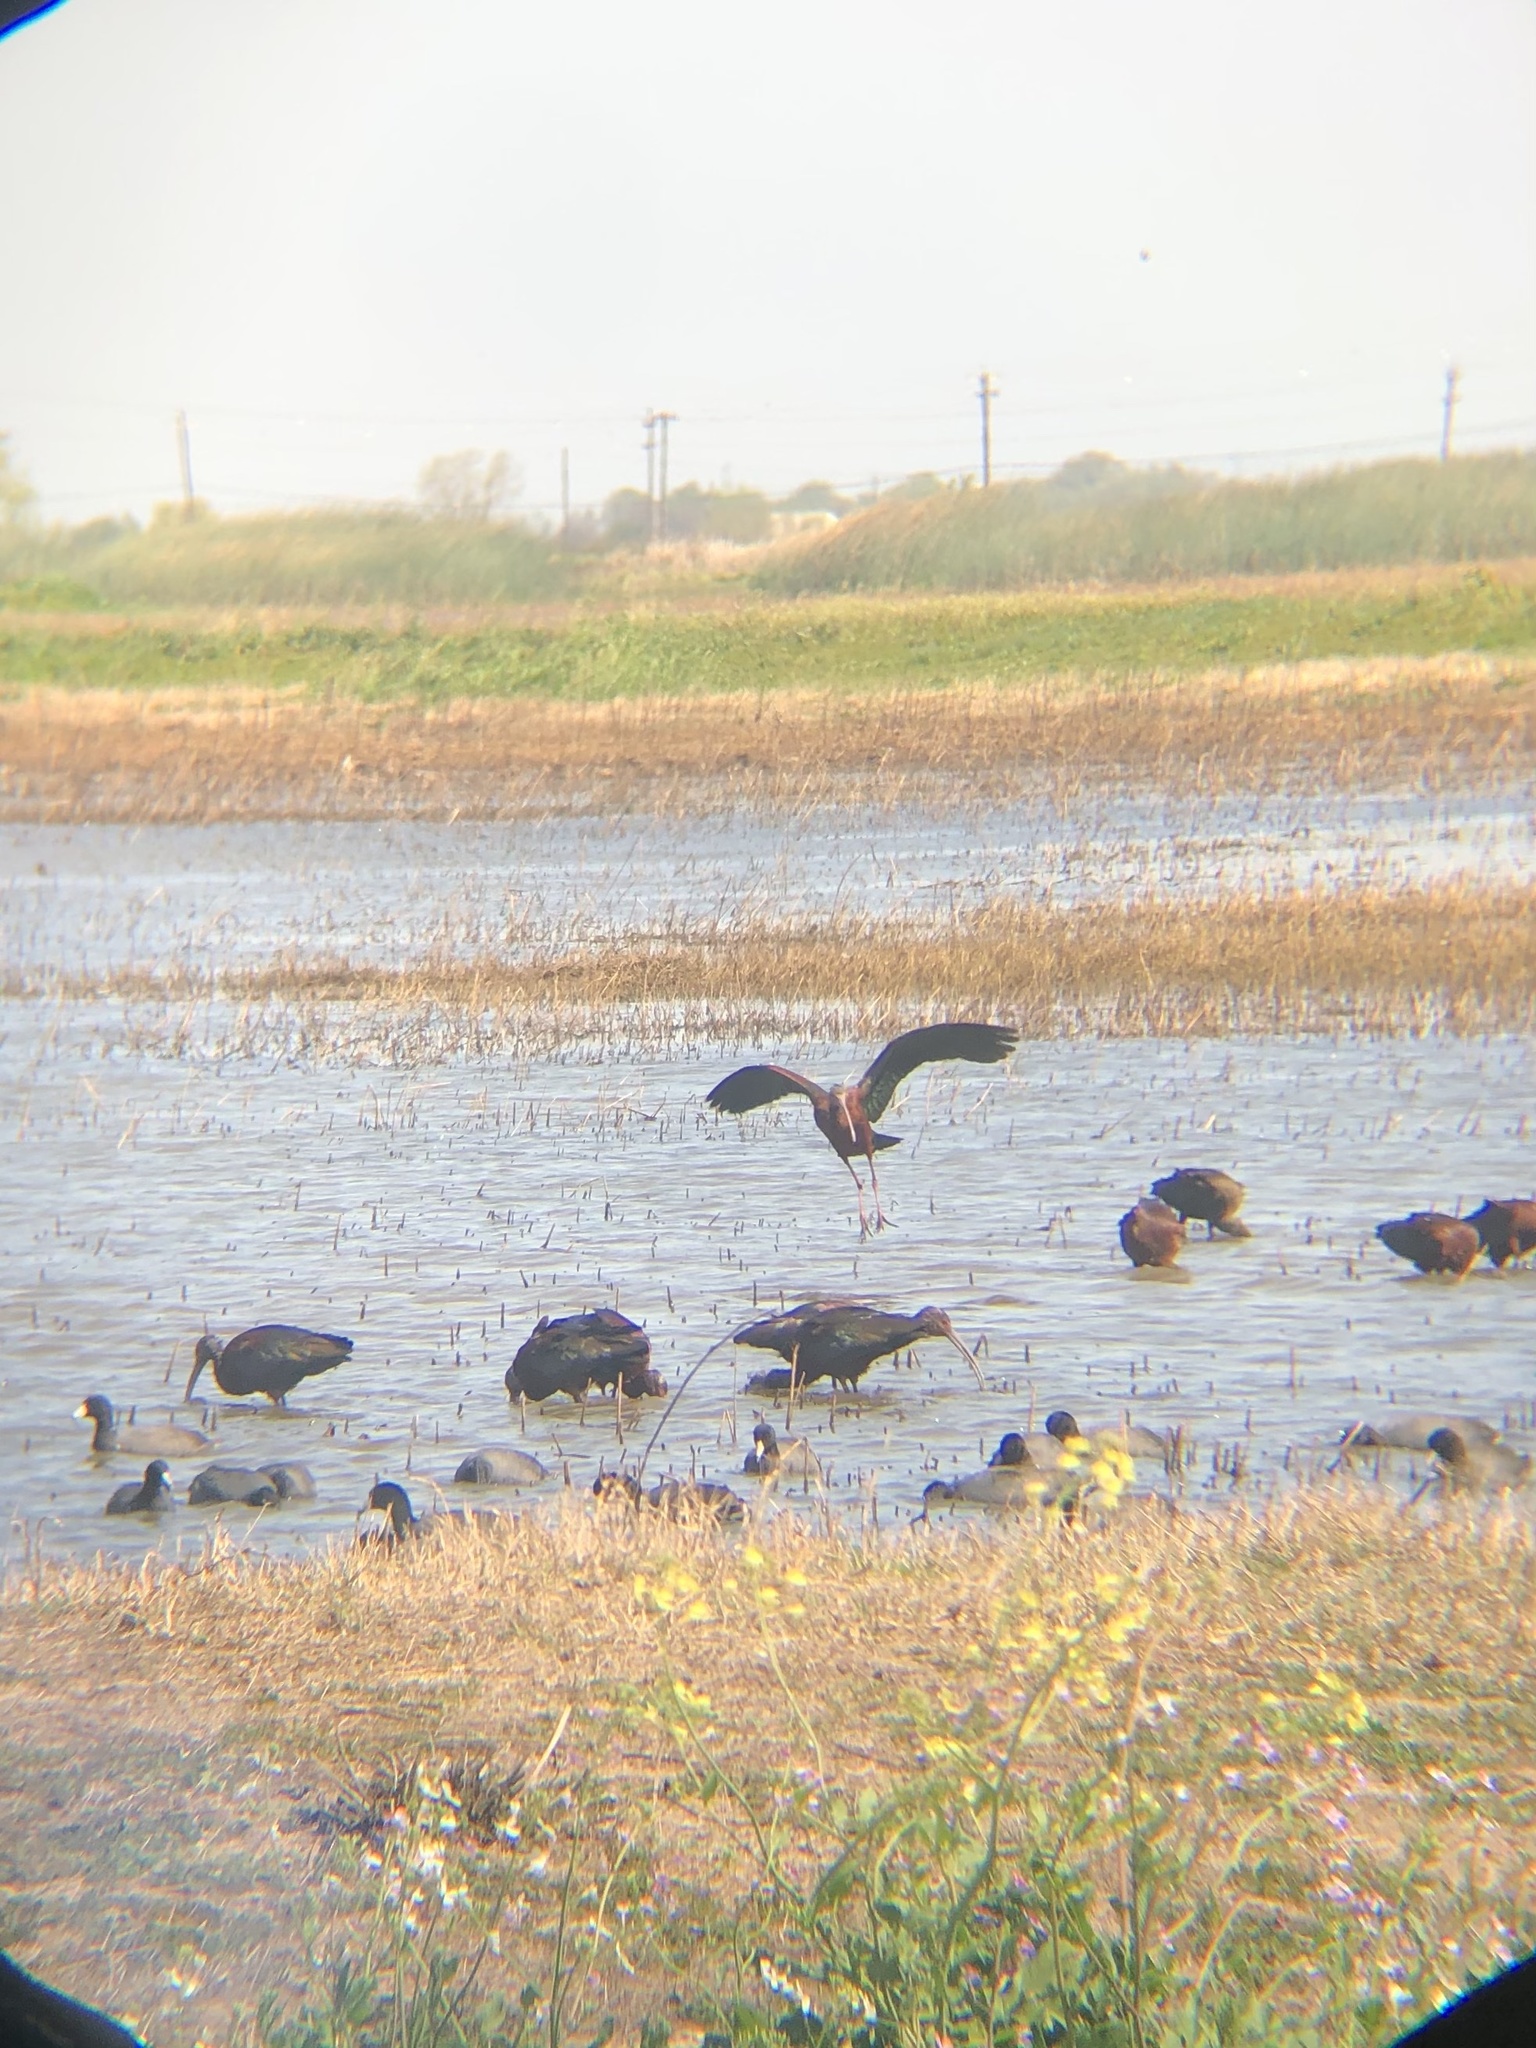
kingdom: Animalia
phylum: Chordata
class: Aves
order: Pelecaniformes
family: Threskiornithidae
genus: Plegadis
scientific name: Plegadis chihi
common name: White-faced ibis
